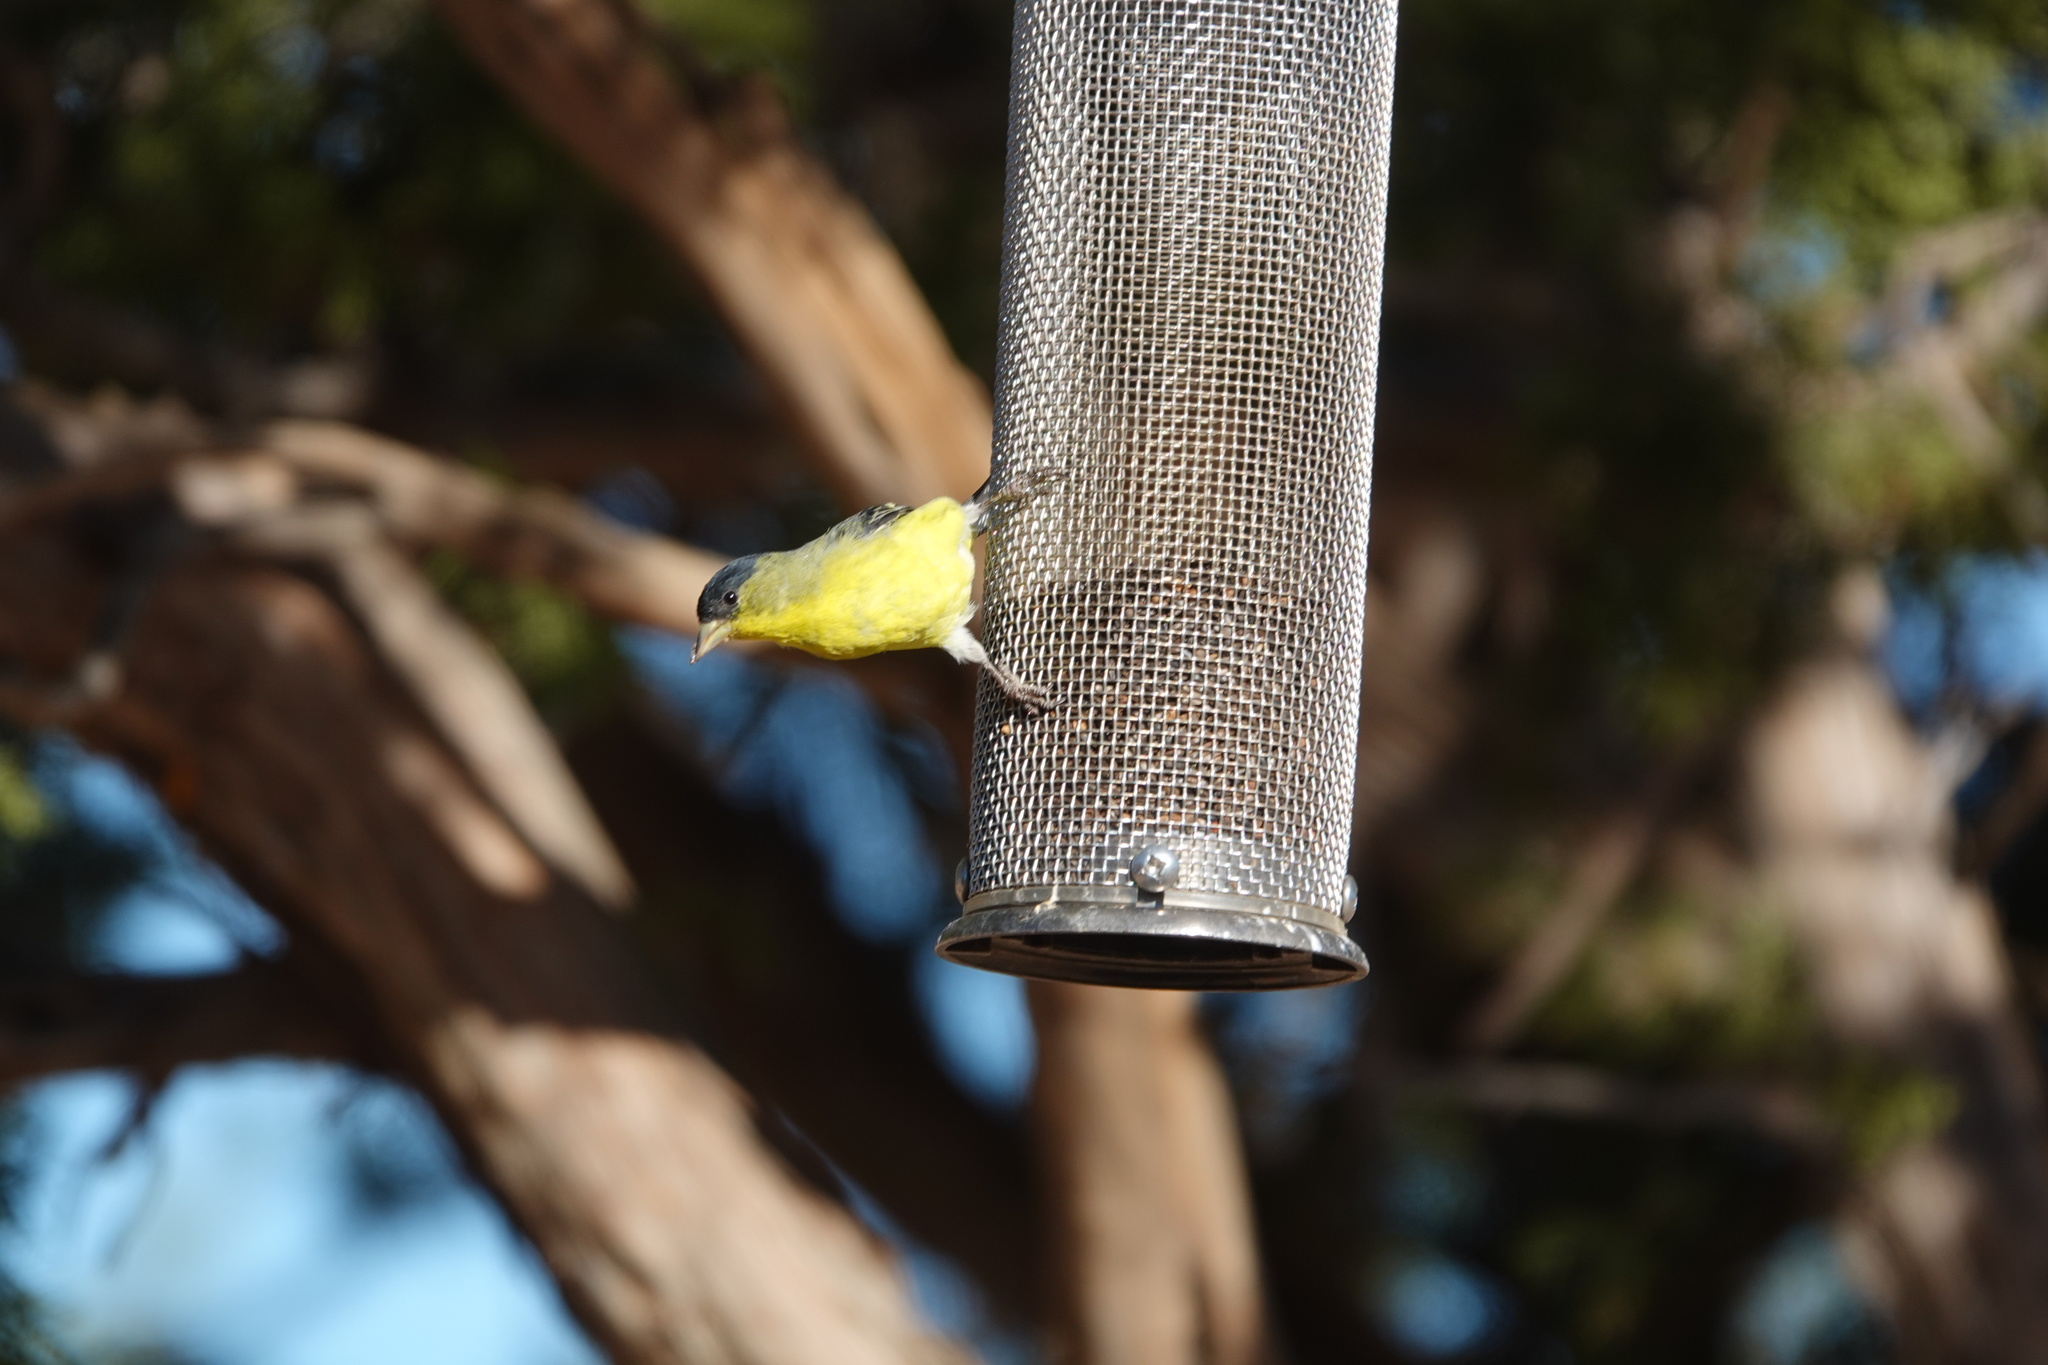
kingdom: Animalia
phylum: Chordata
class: Aves
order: Passeriformes
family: Fringillidae
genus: Spinus
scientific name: Spinus psaltria
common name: Lesser goldfinch
